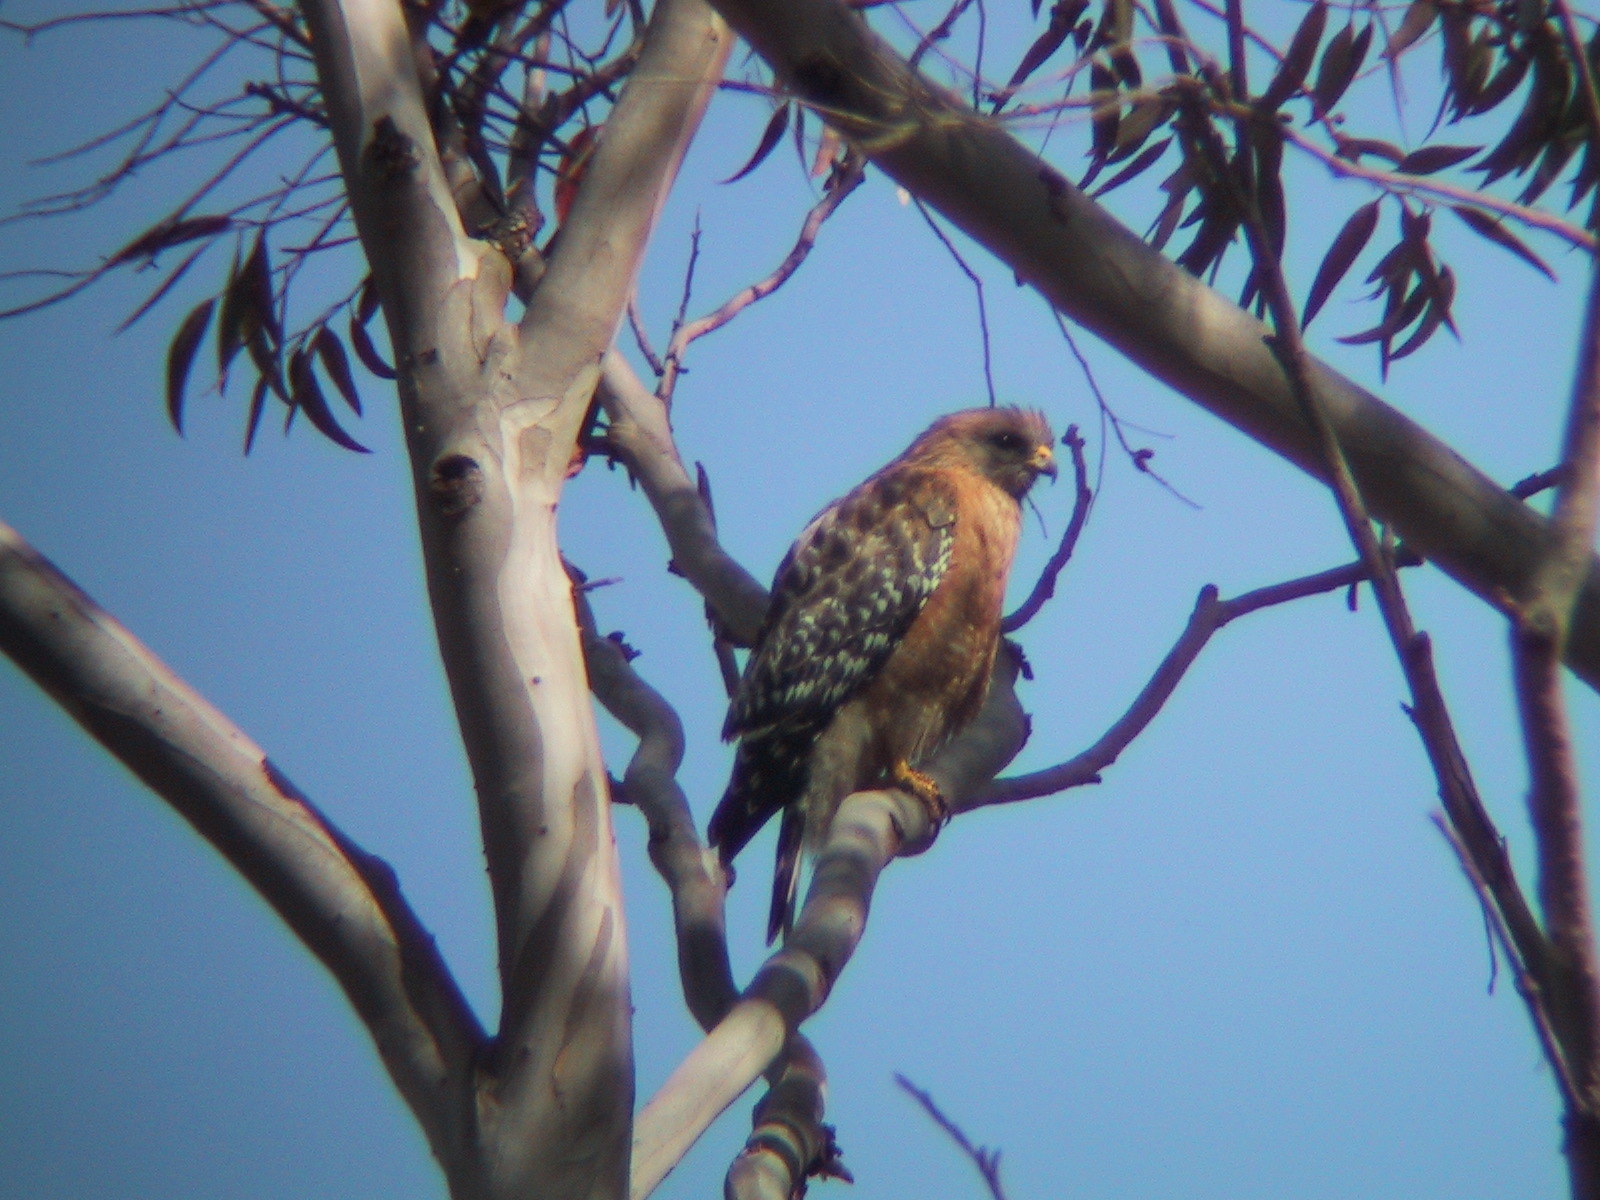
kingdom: Animalia
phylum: Chordata
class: Aves
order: Accipitriformes
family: Accipitridae
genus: Buteo
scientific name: Buteo lineatus
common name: Red-shouldered hawk
